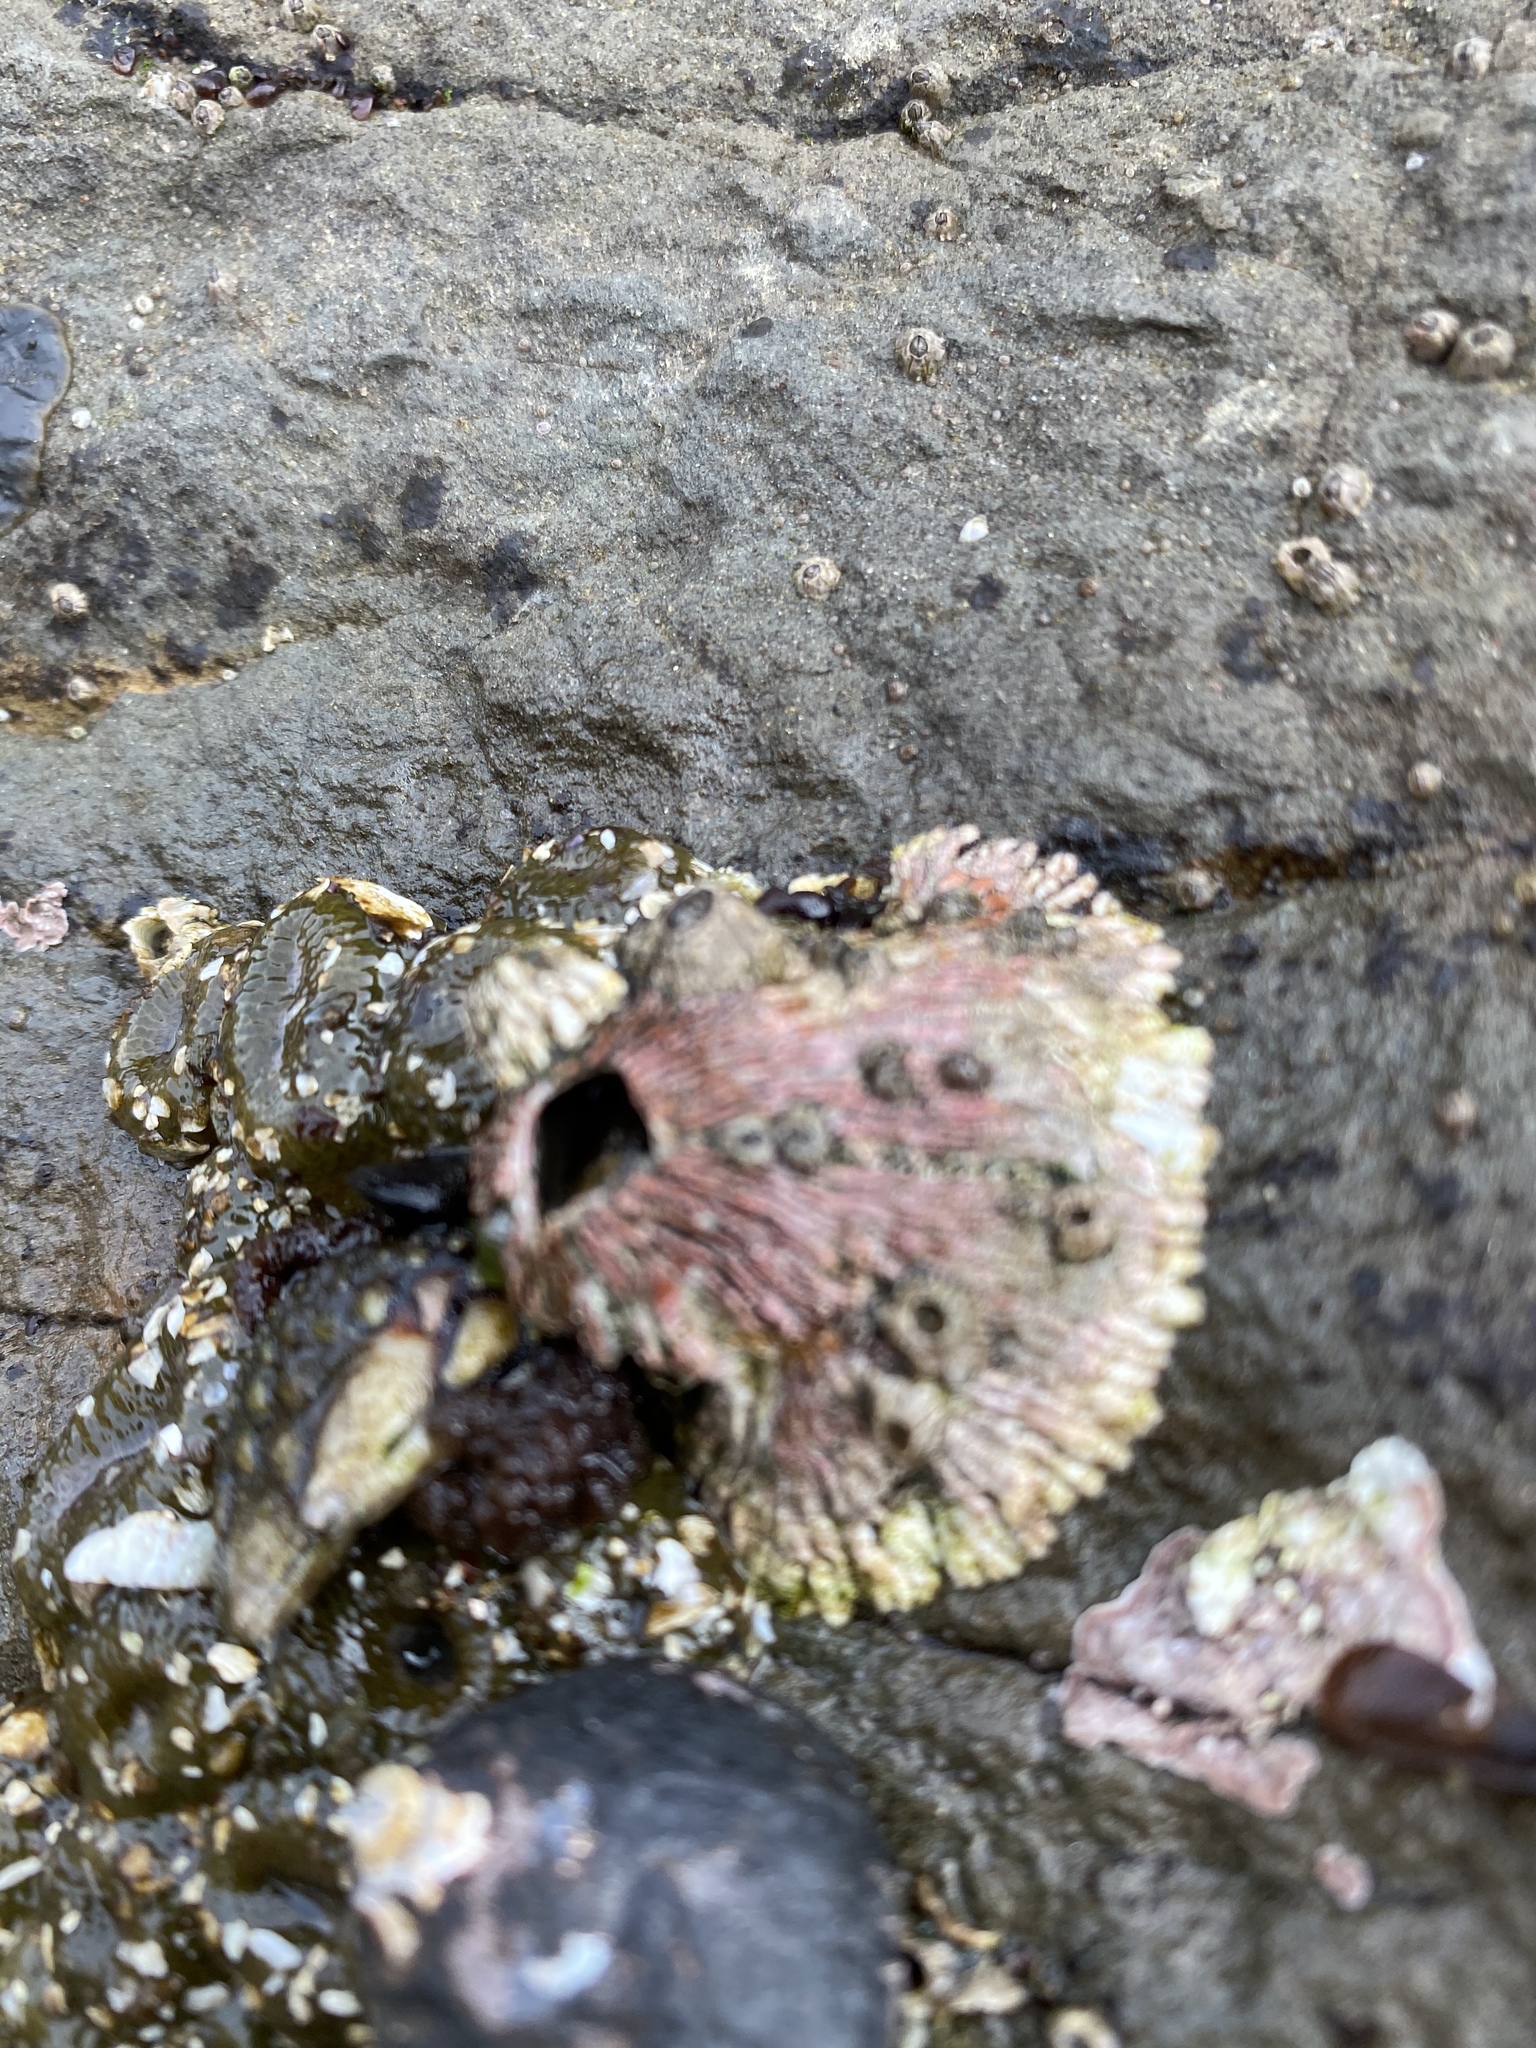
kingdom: Animalia
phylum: Arthropoda
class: Maxillopoda
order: Sessilia
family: Tetraclitidae
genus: Tetraclita
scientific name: Tetraclita rubescens
